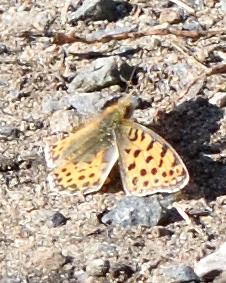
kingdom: Animalia
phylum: Arthropoda
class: Insecta
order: Lepidoptera
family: Nymphalidae
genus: Issoria
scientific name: Issoria lathonia
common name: Queen of spain fritillary
